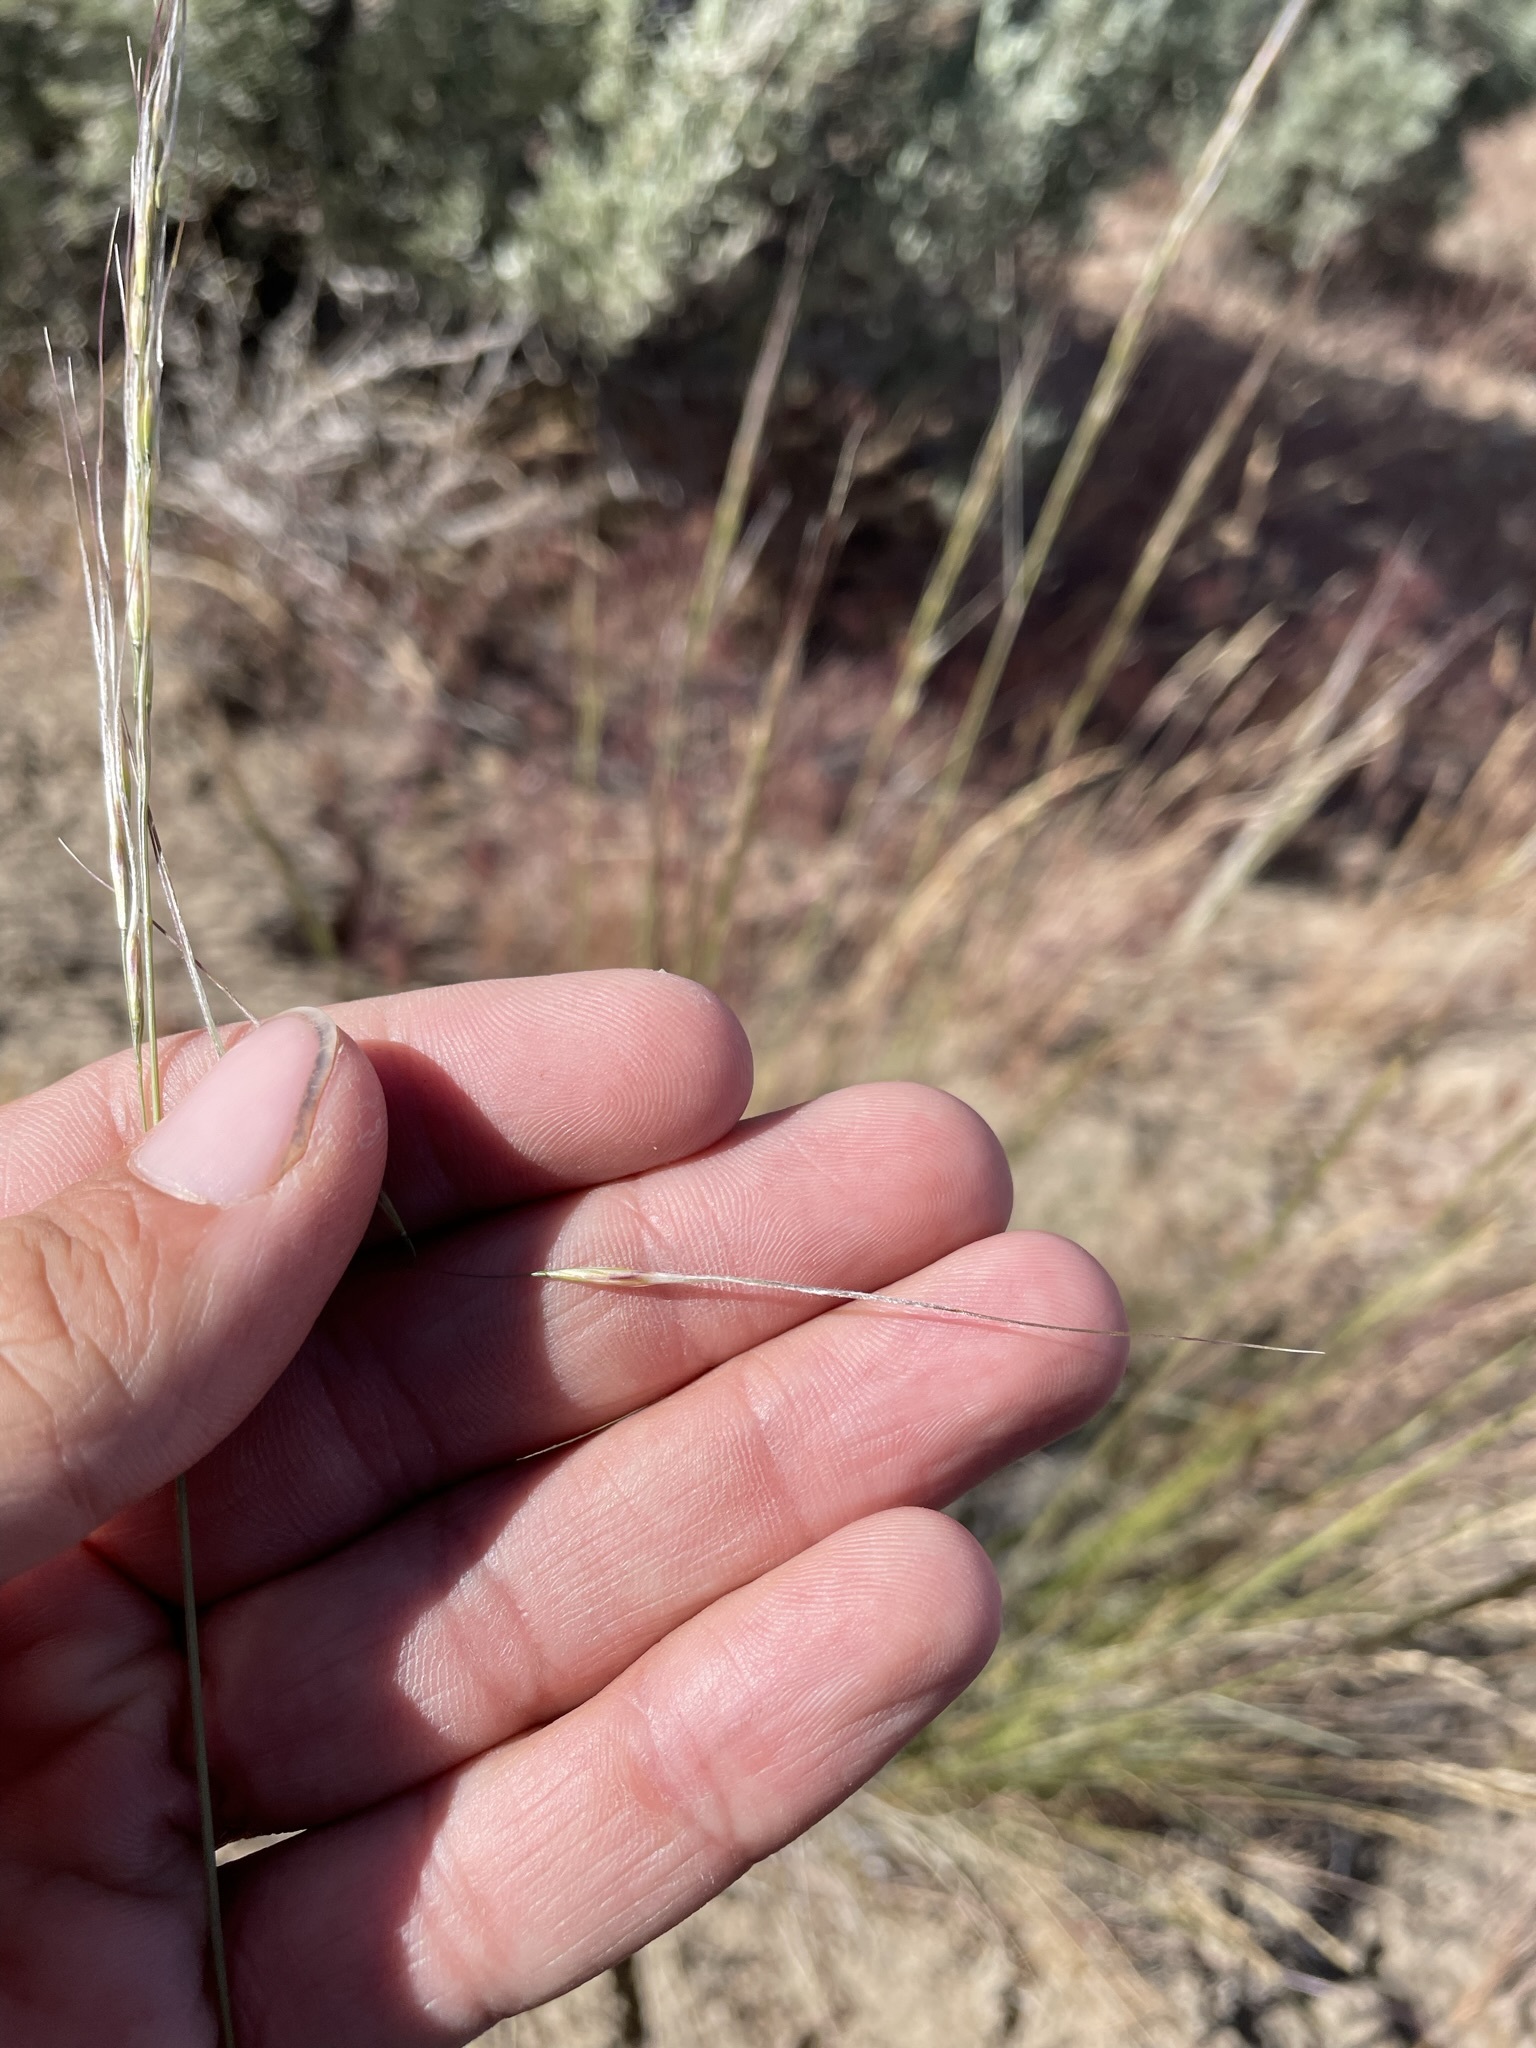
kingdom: Plantae
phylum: Tracheophyta
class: Liliopsida
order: Poales
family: Poaceae
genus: Hesperostipa
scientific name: Hesperostipa comata
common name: Needle-and-thread grass
